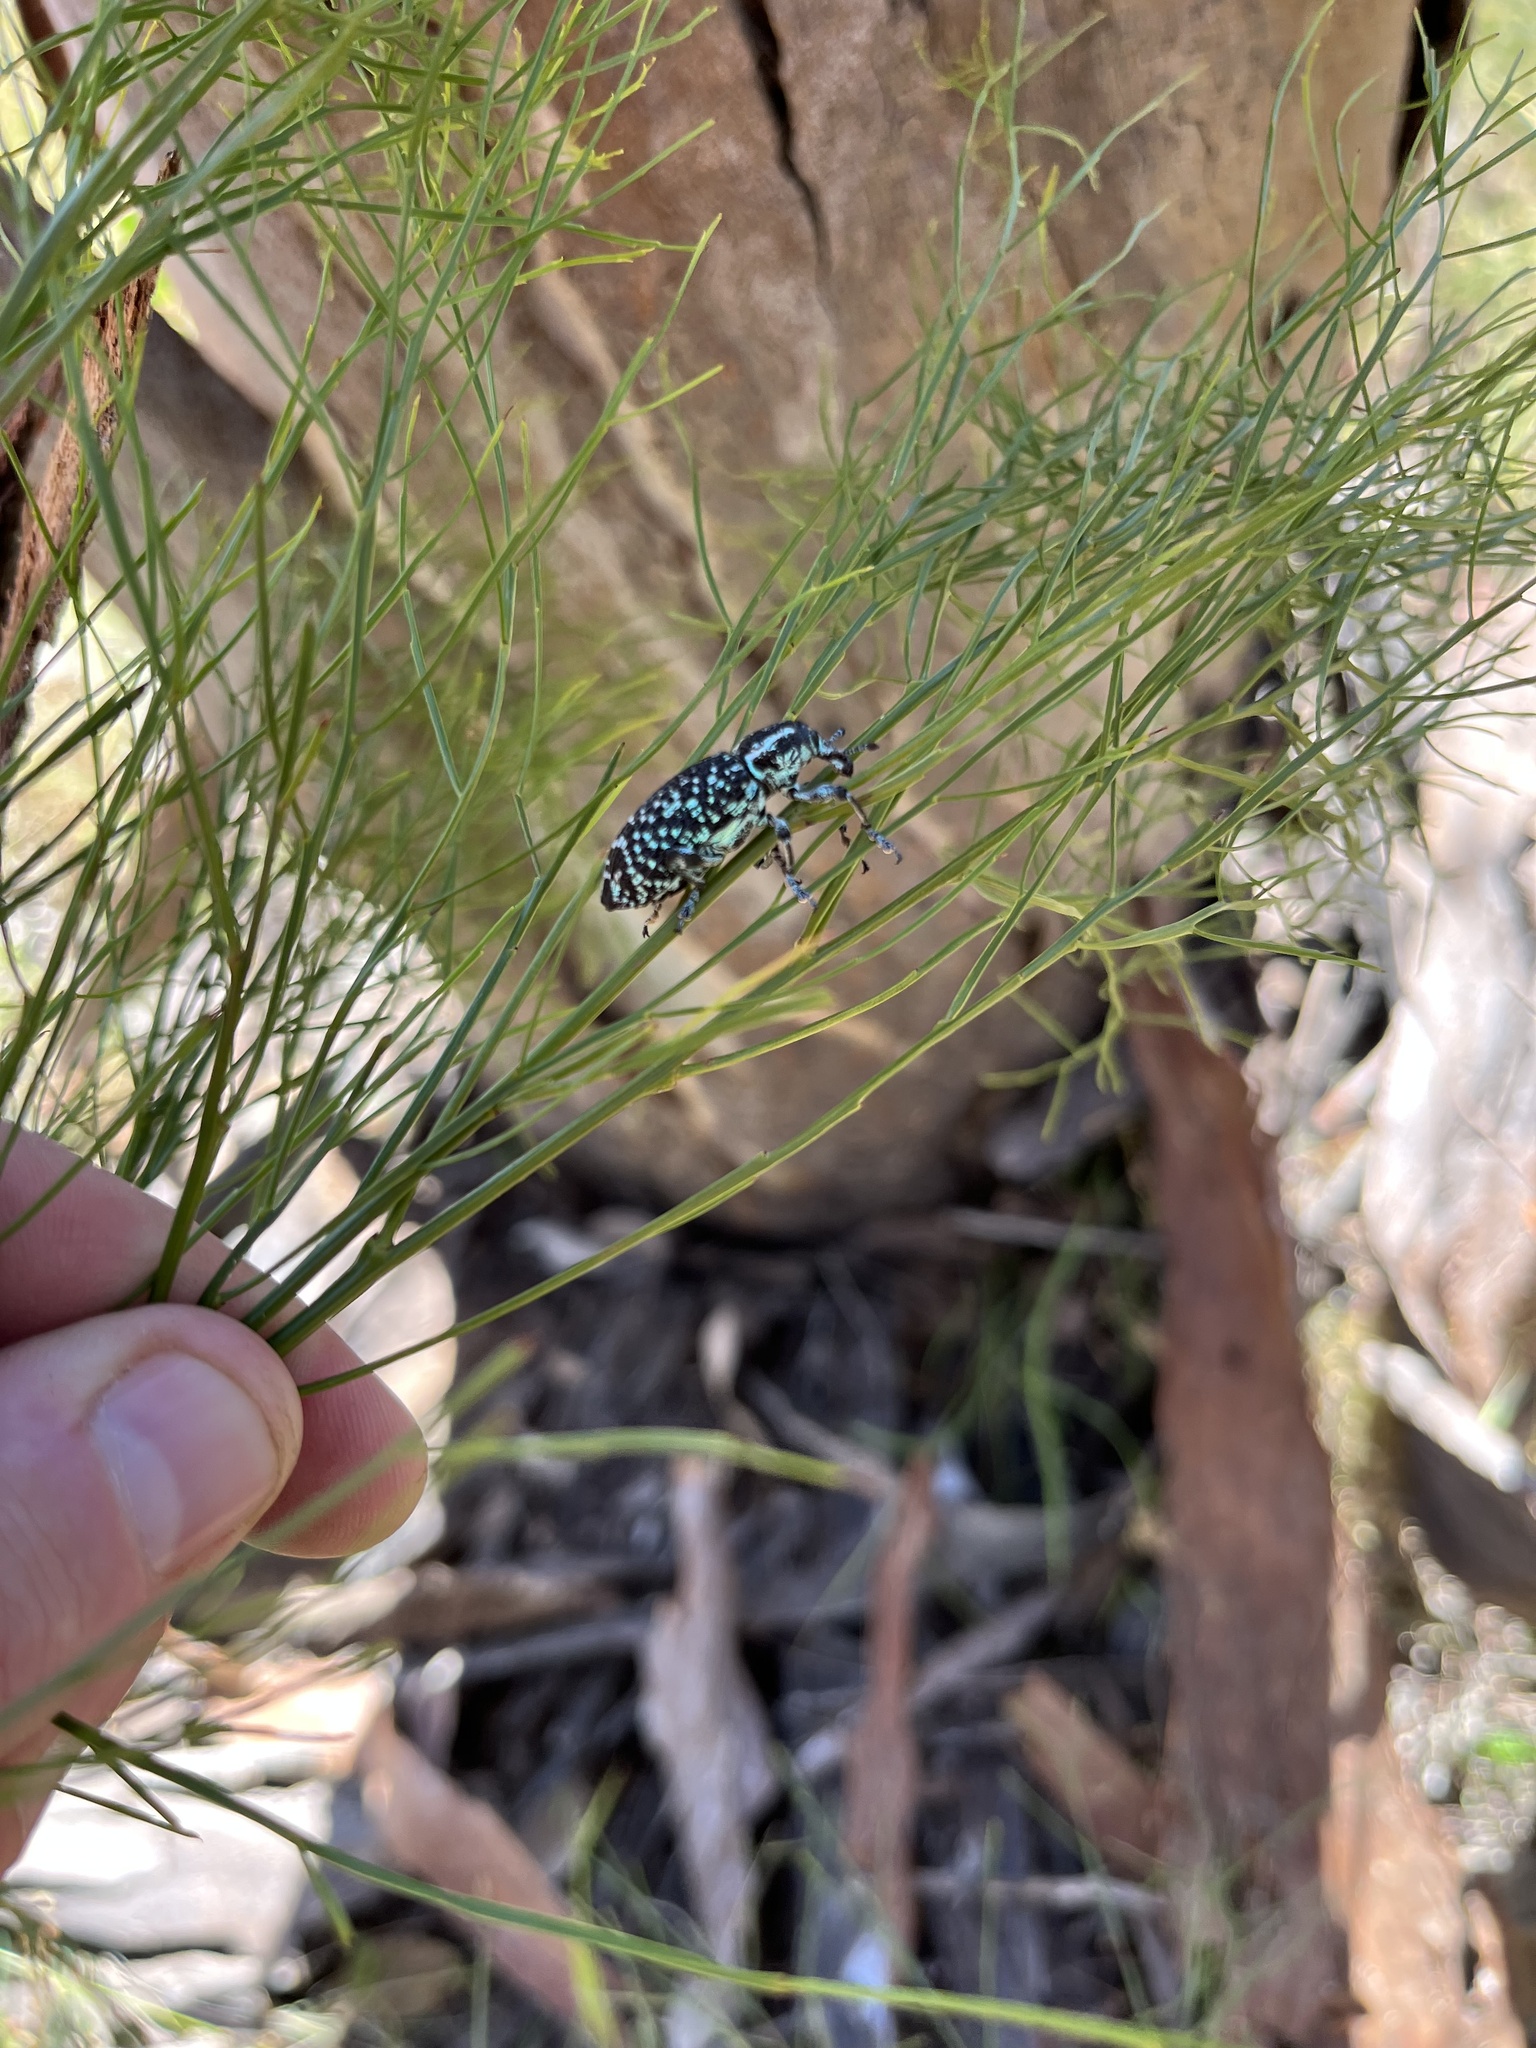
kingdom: Animalia
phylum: Arthropoda
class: Insecta
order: Coleoptera
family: Curculionidae
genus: Chrysolopus
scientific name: Chrysolopus spectabilis
